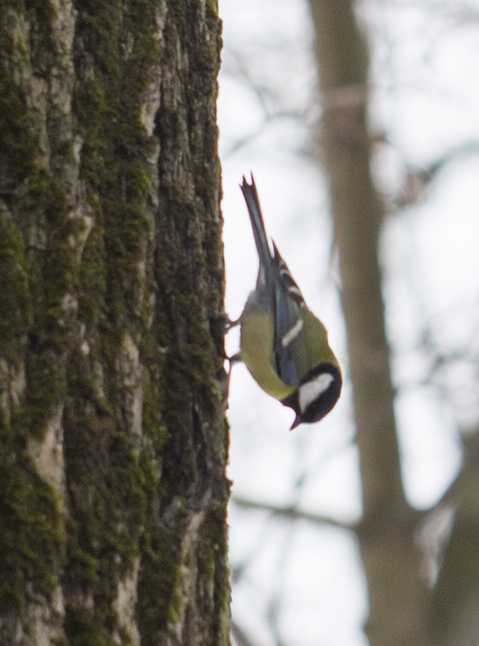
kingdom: Animalia
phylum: Chordata
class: Aves
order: Passeriformes
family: Paridae
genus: Parus
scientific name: Parus major
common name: Great tit
